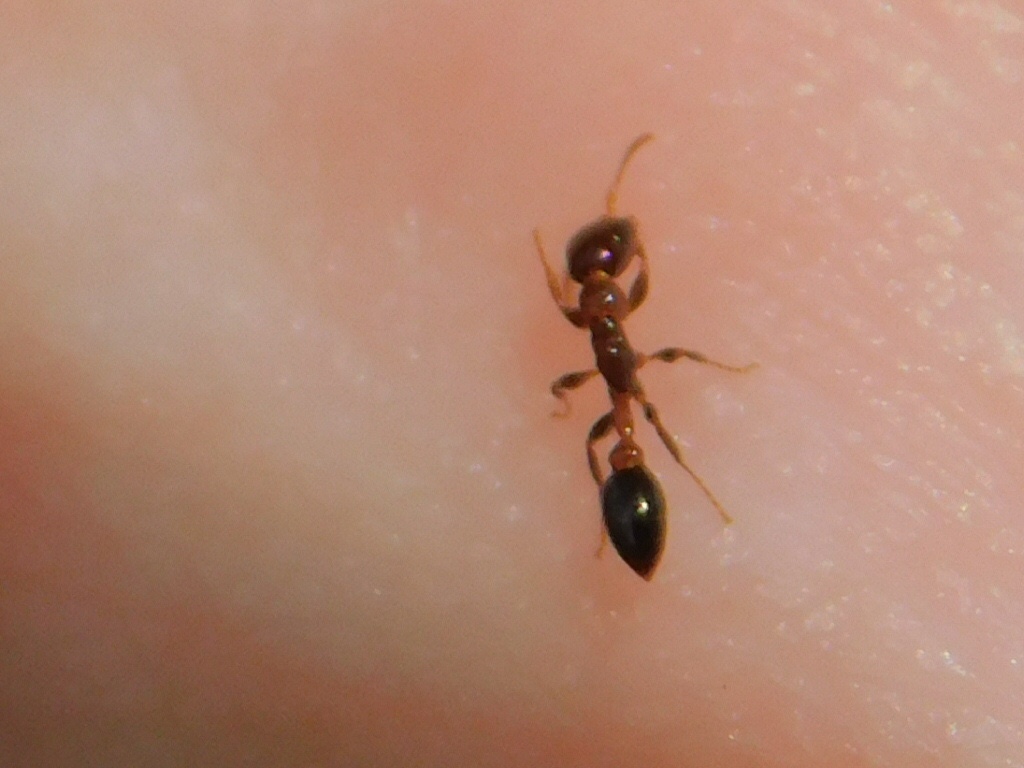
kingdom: Animalia
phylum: Arthropoda
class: Insecta
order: Hymenoptera
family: Formicidae
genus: Pseudomyrmex
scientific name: Pseudomyrmex ejectus
